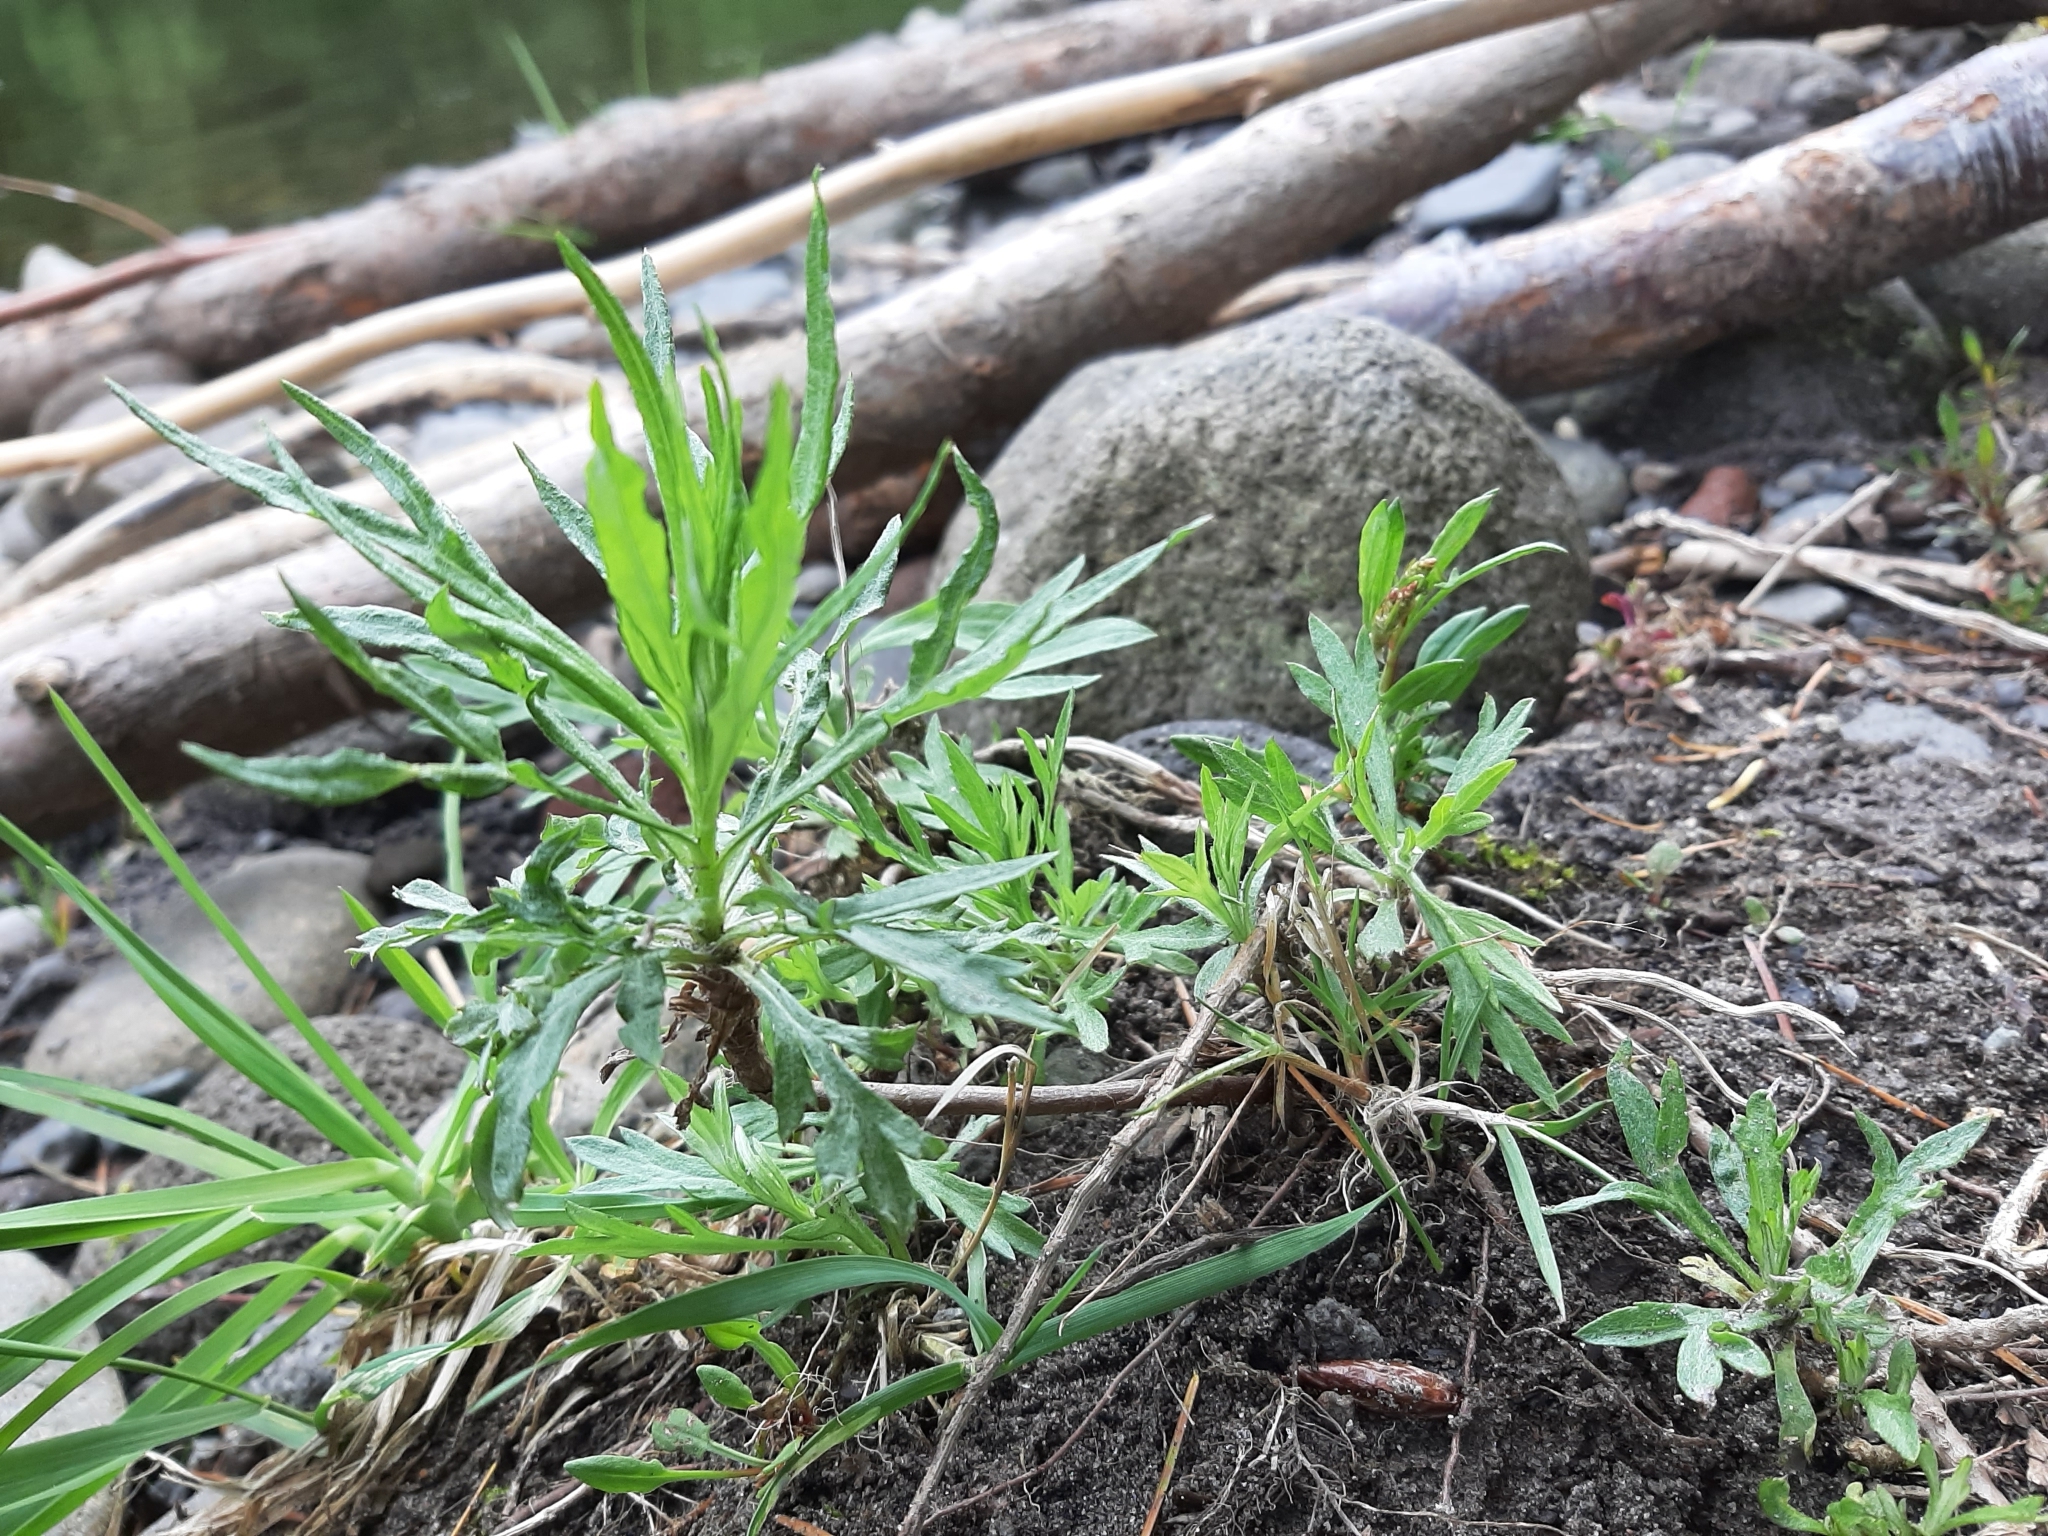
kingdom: Plantae
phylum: Tracheophyta
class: Magnoliopsida
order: Asterales
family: Asteraceae
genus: Artemisia
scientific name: Artemisia vulgaris
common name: Mugwort
